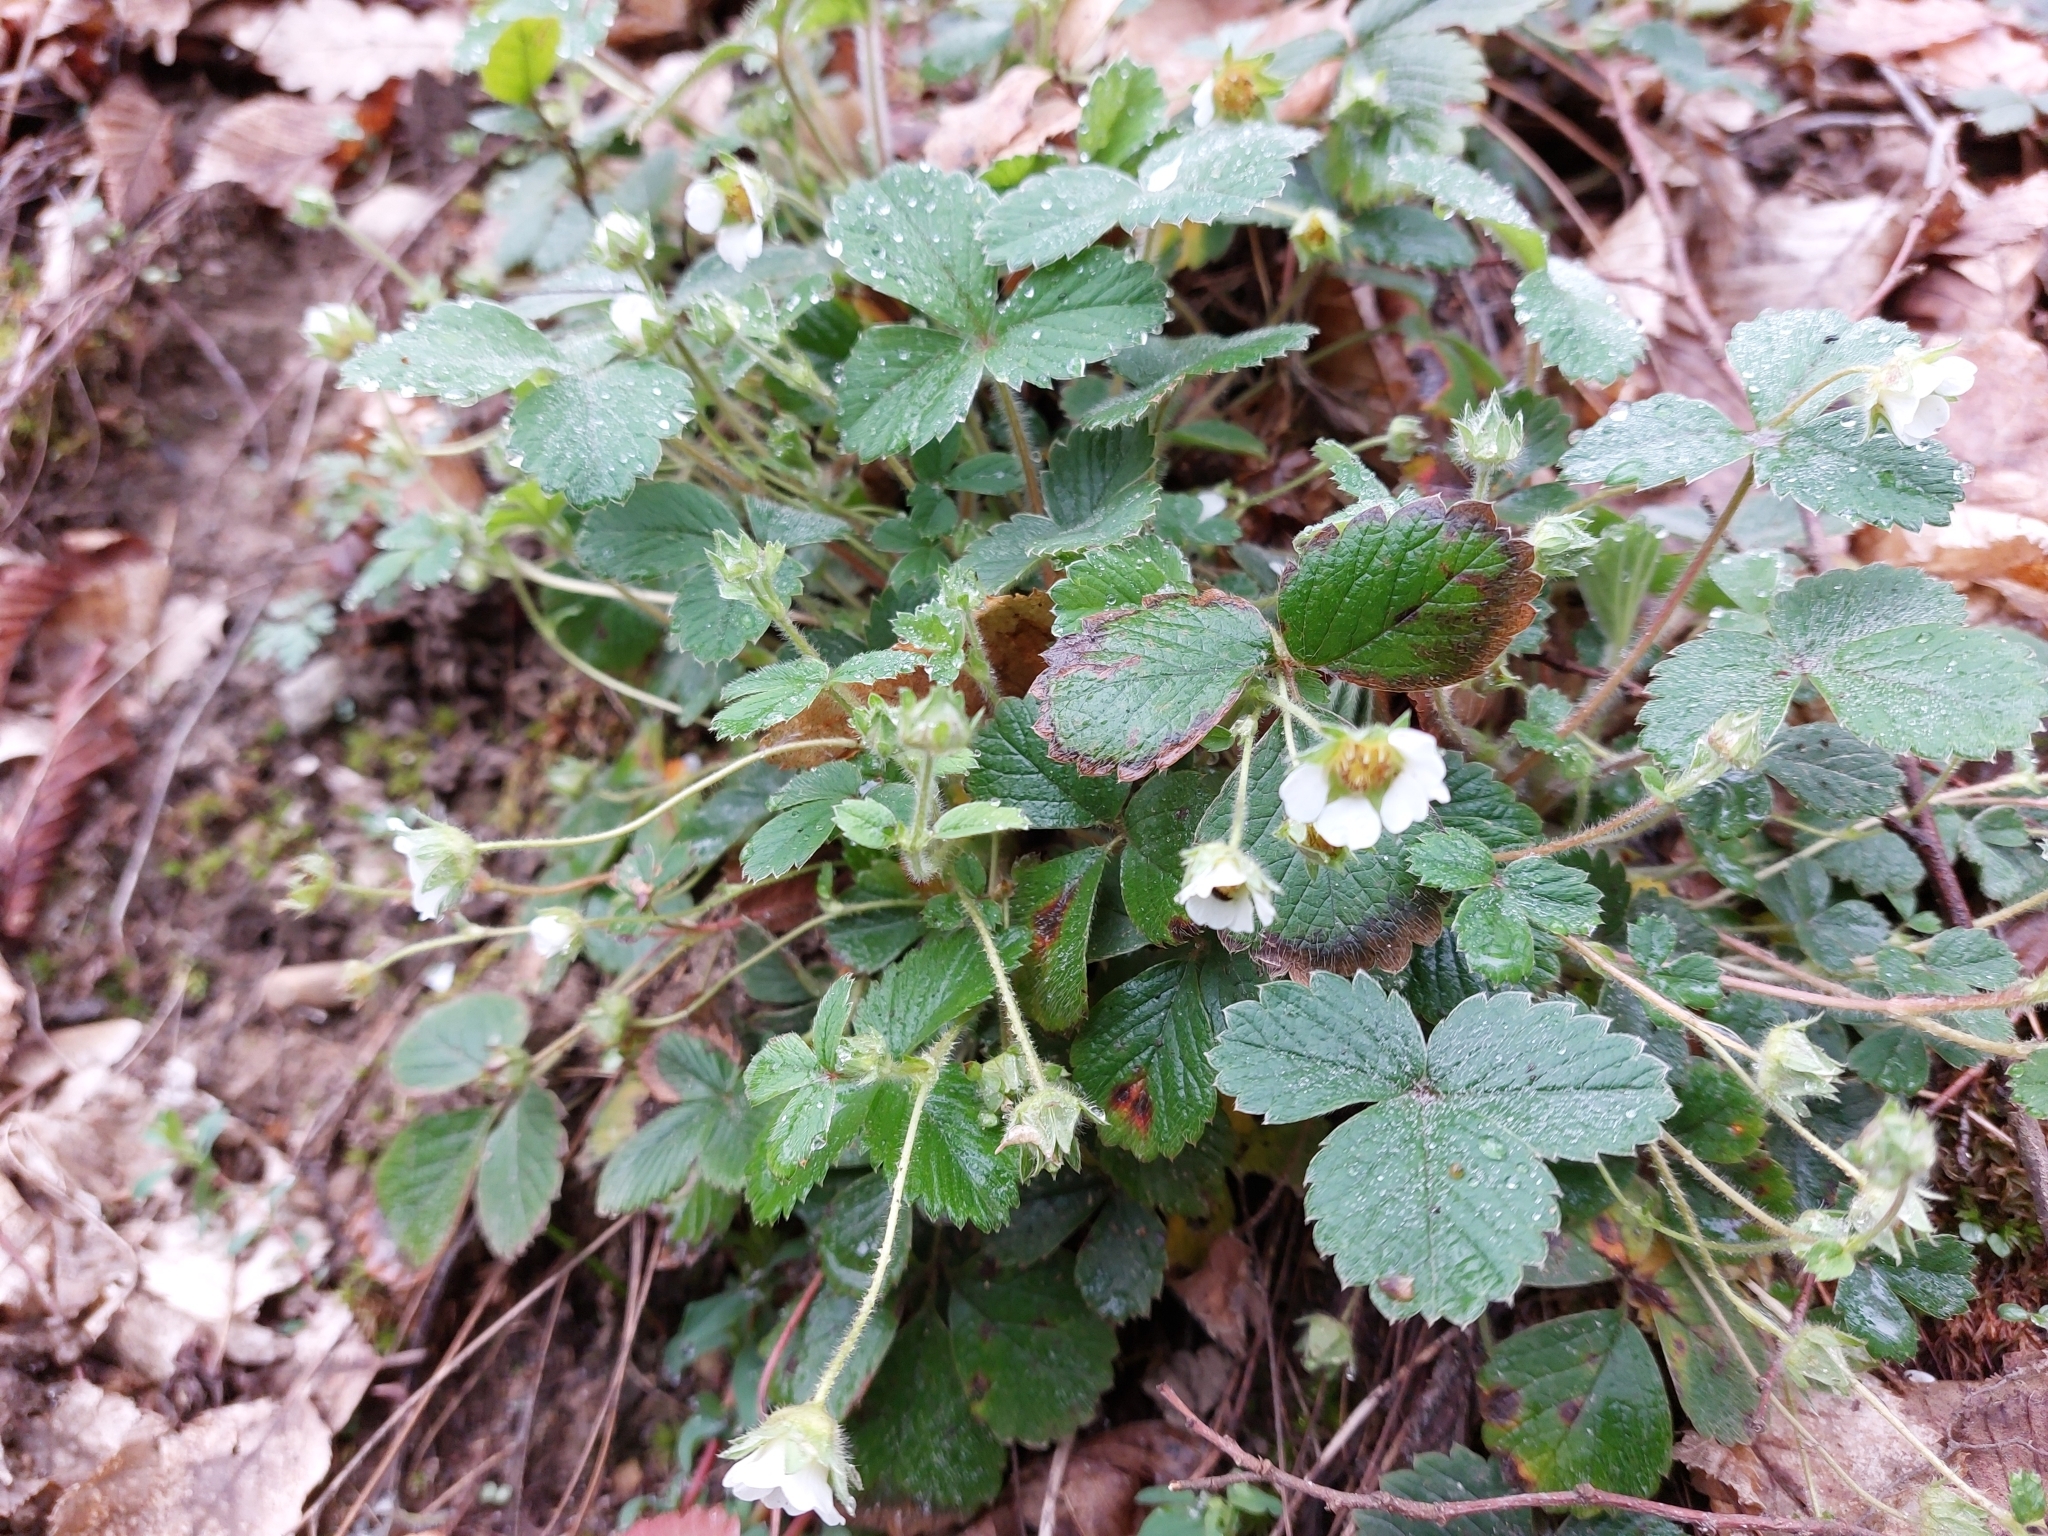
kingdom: Plantae
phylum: Tracheophyta
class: Magnoliopsida
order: Rosales
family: Rosaceae
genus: Potentilla
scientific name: Potentilla sterilis
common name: Barren strawberry
